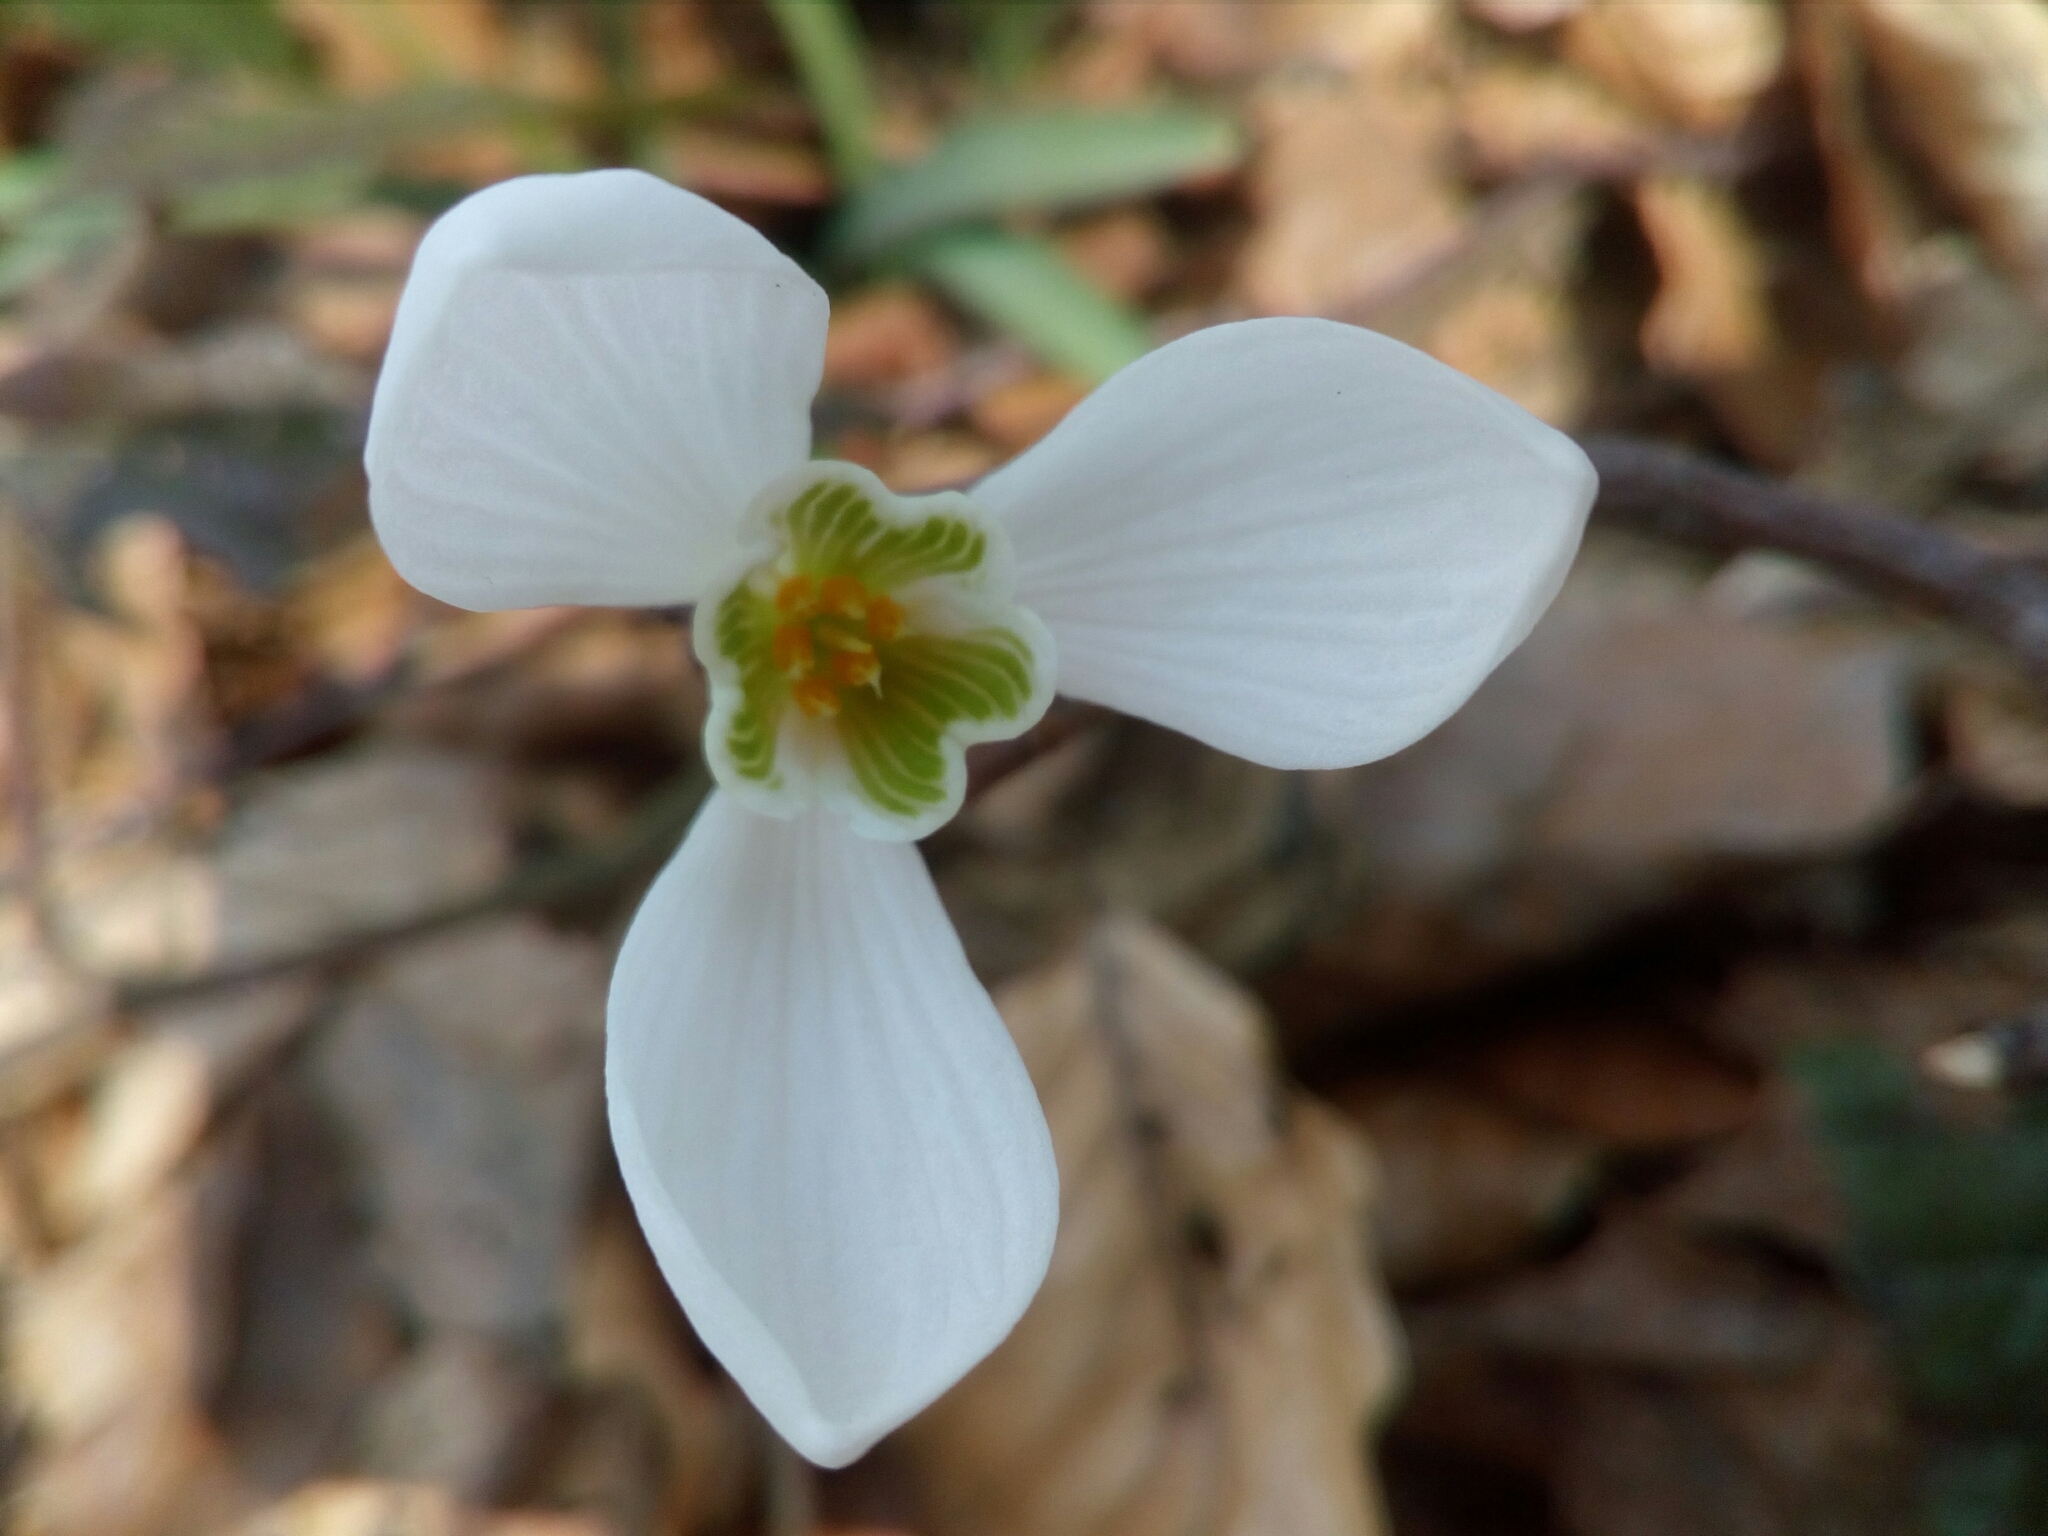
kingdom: Plantae
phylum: Tracheophyta
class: Liliopsida
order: Asparagales
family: Amaryllidaceae
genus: Galanthus
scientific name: Galanthus nivalis
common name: Snowdrop
